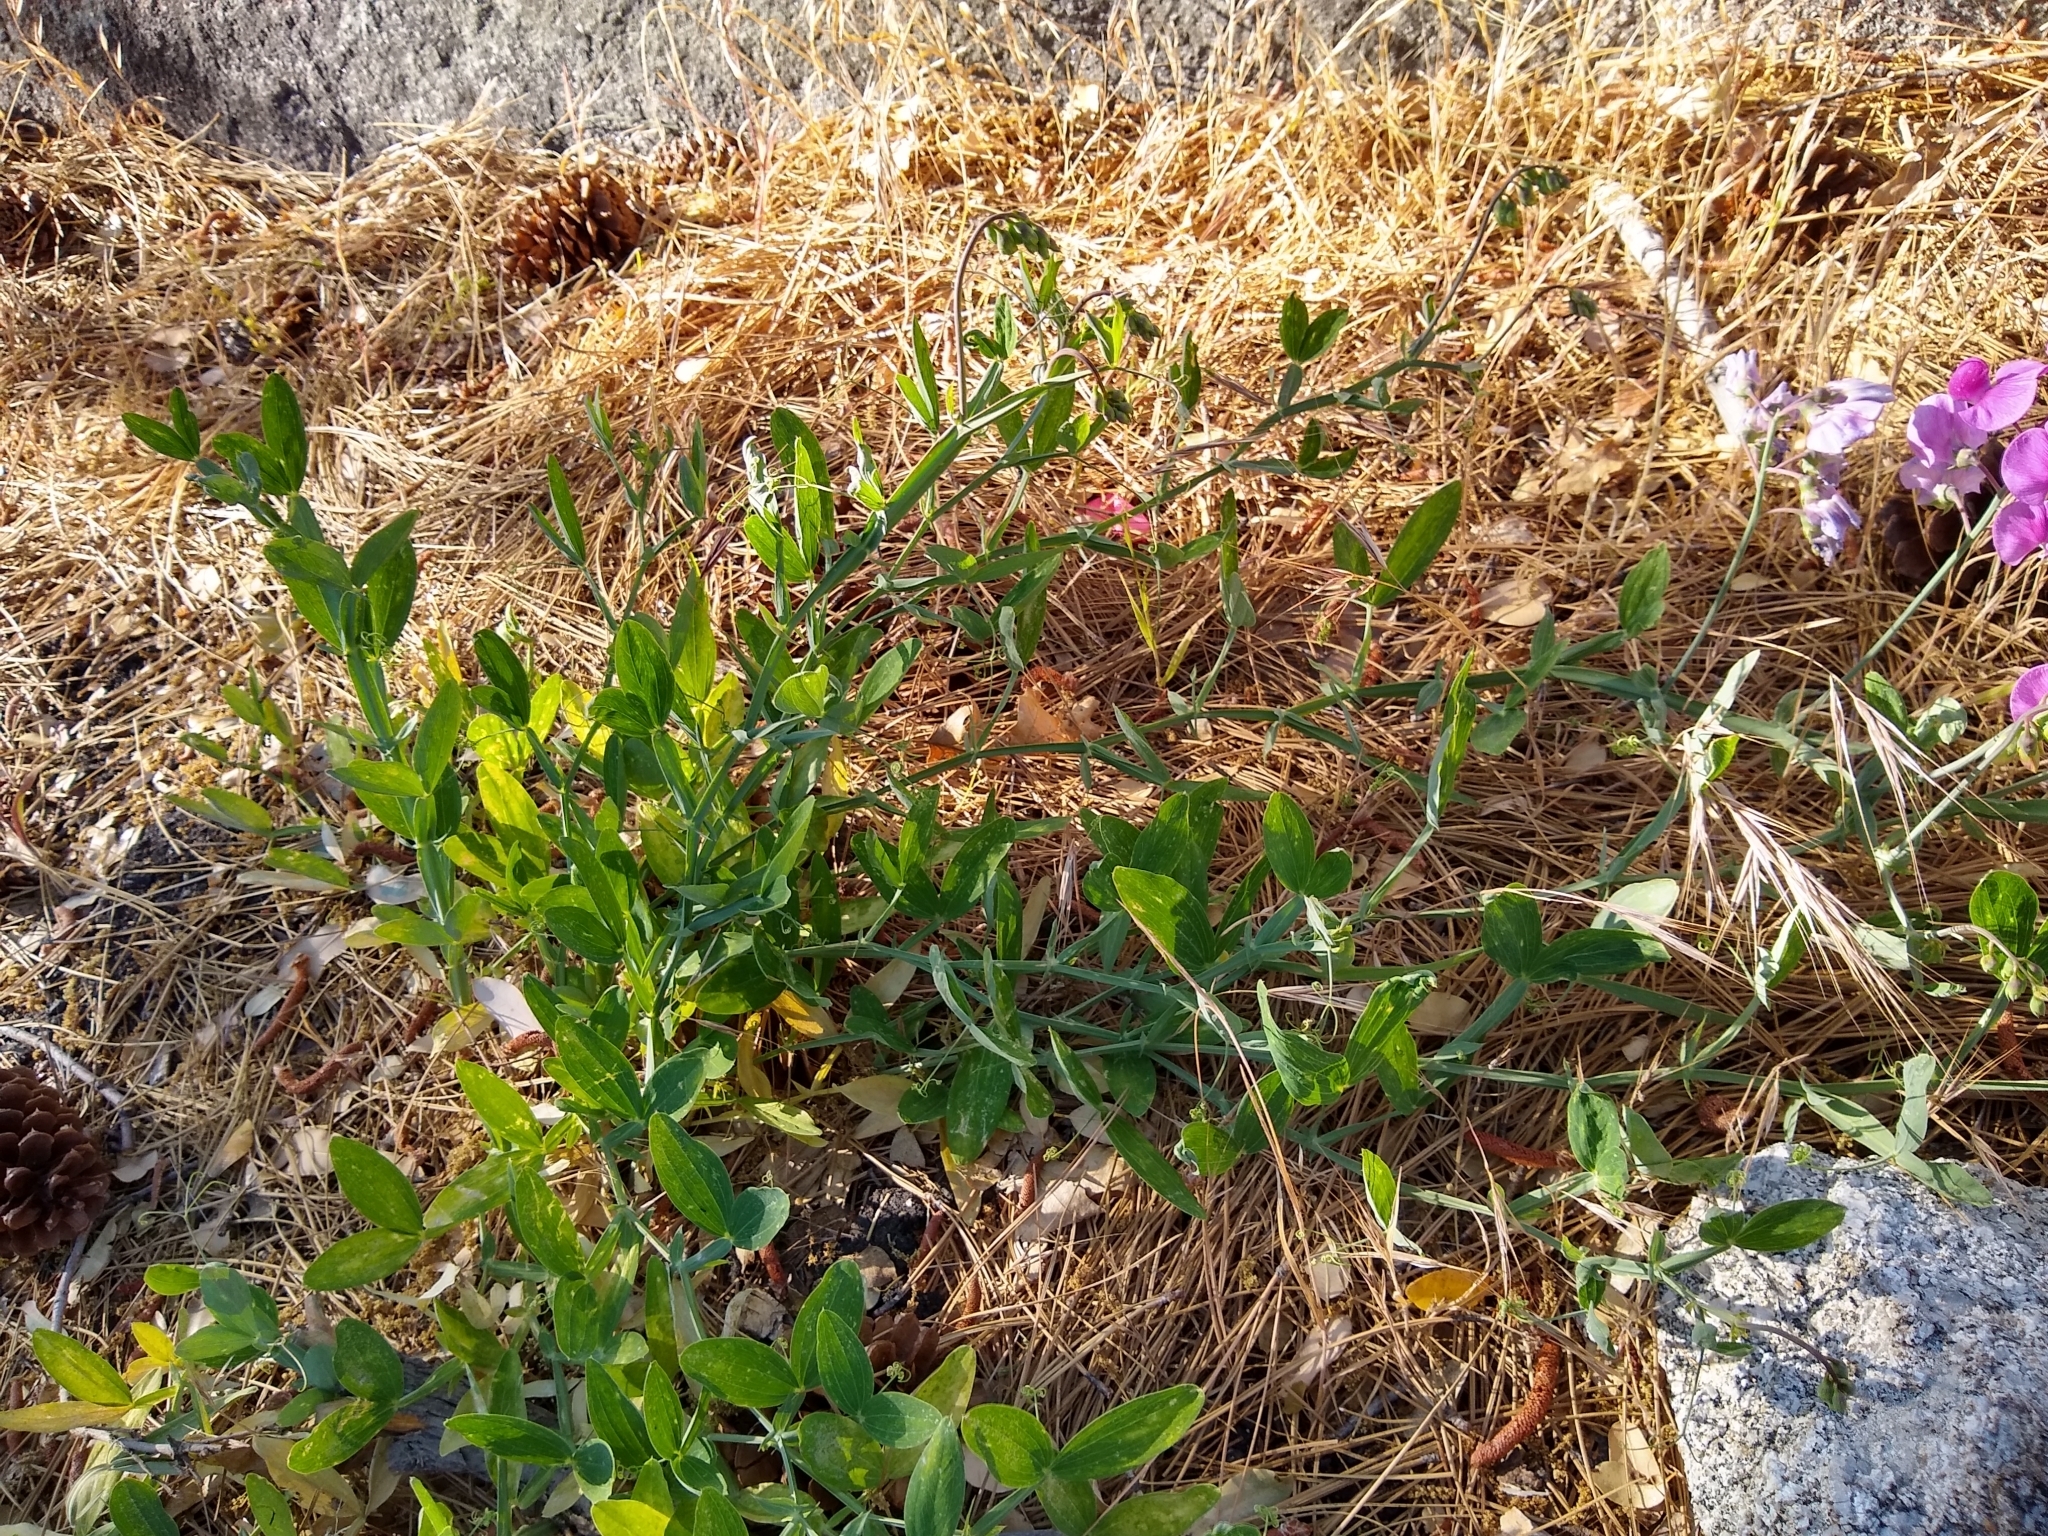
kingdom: Plantae
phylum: Tracheophyta
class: Magnoliopsida
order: Fabales
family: Fabaceae
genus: Lathyrus
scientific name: Lathyrus latifolius
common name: Perennial pea
